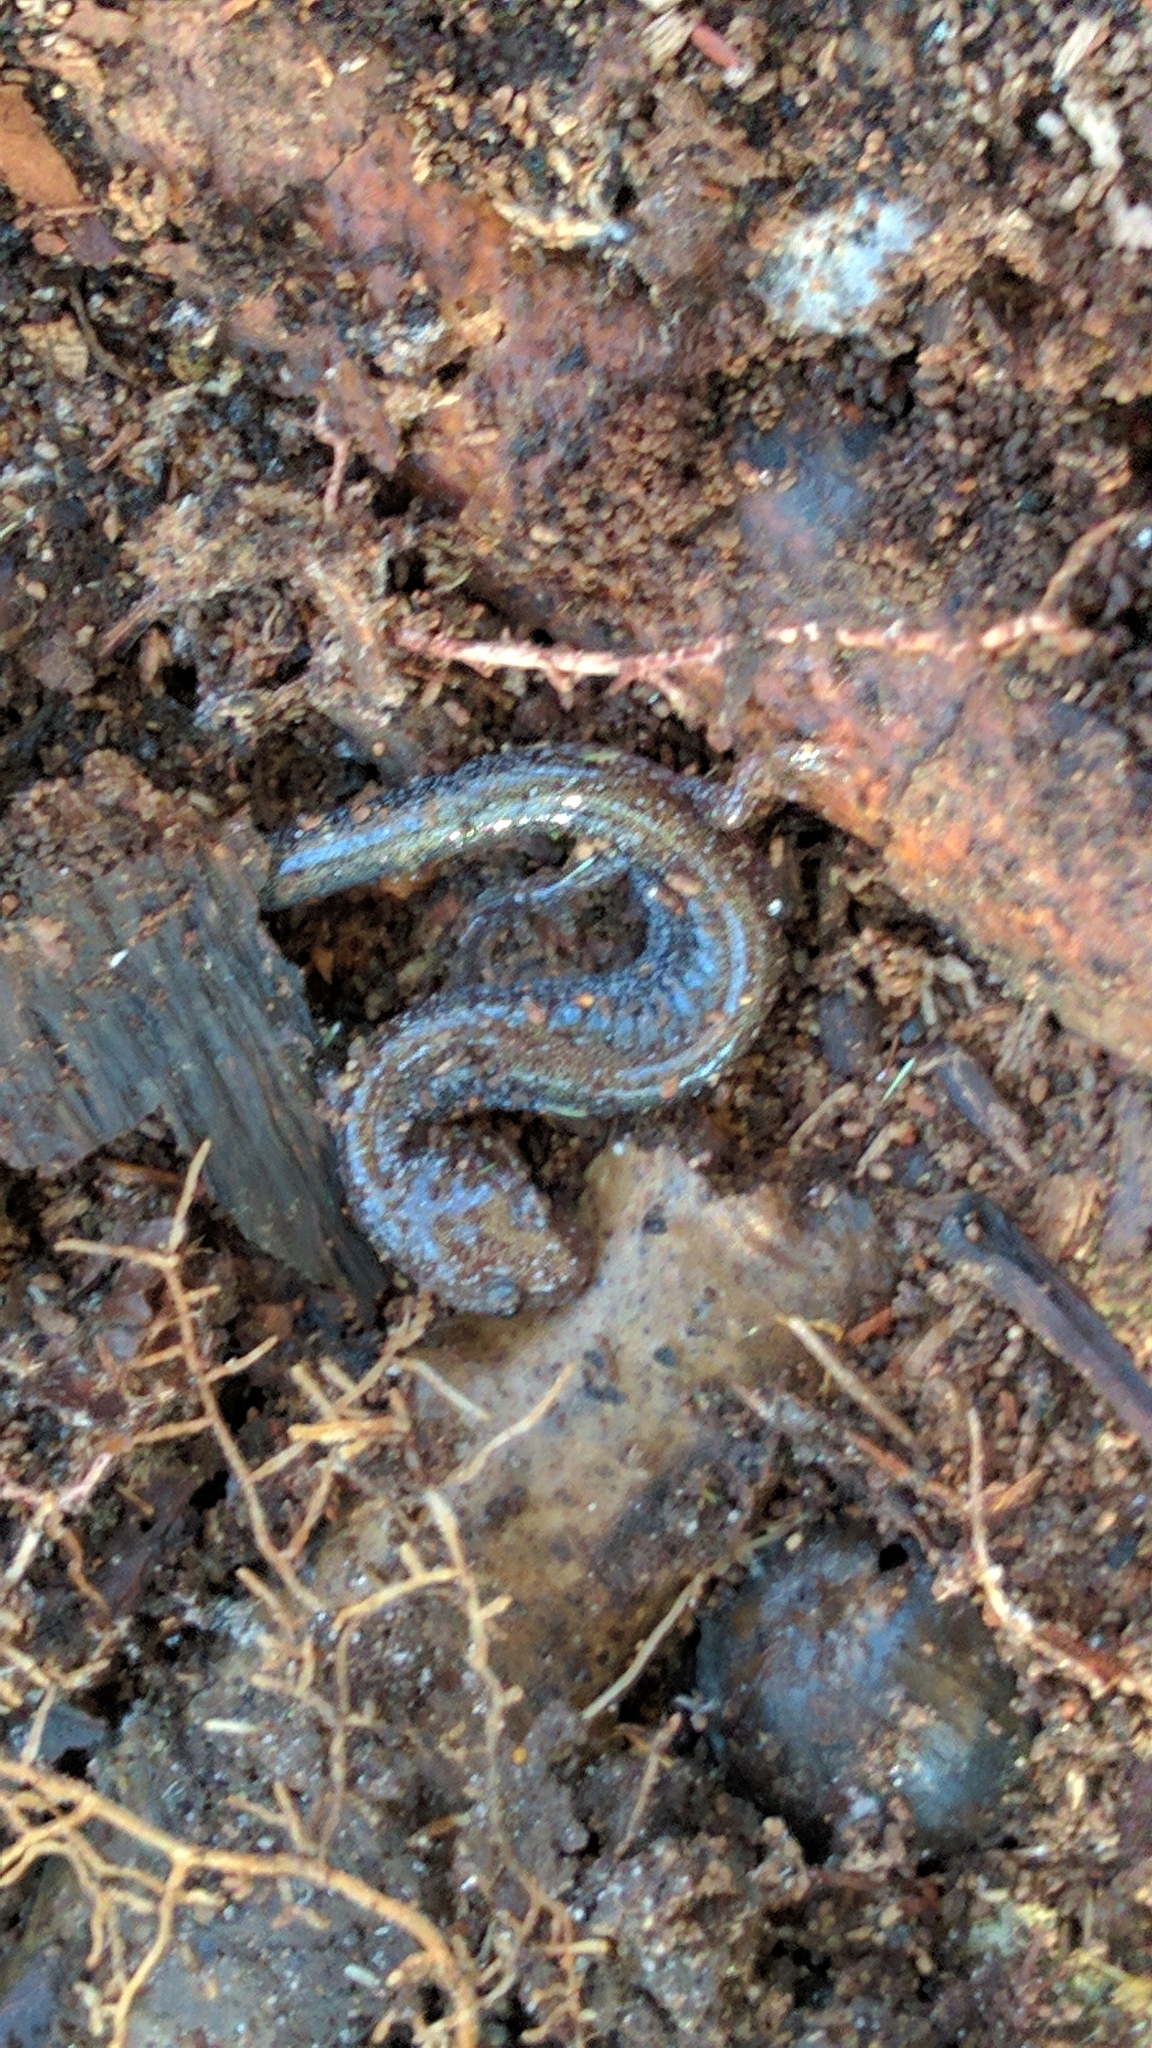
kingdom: Animalia
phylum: Chordata
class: Amphibia
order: Caudata
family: Plethodontidae
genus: Plethodon
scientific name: Plethodon cinereus
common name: Redback salamander
